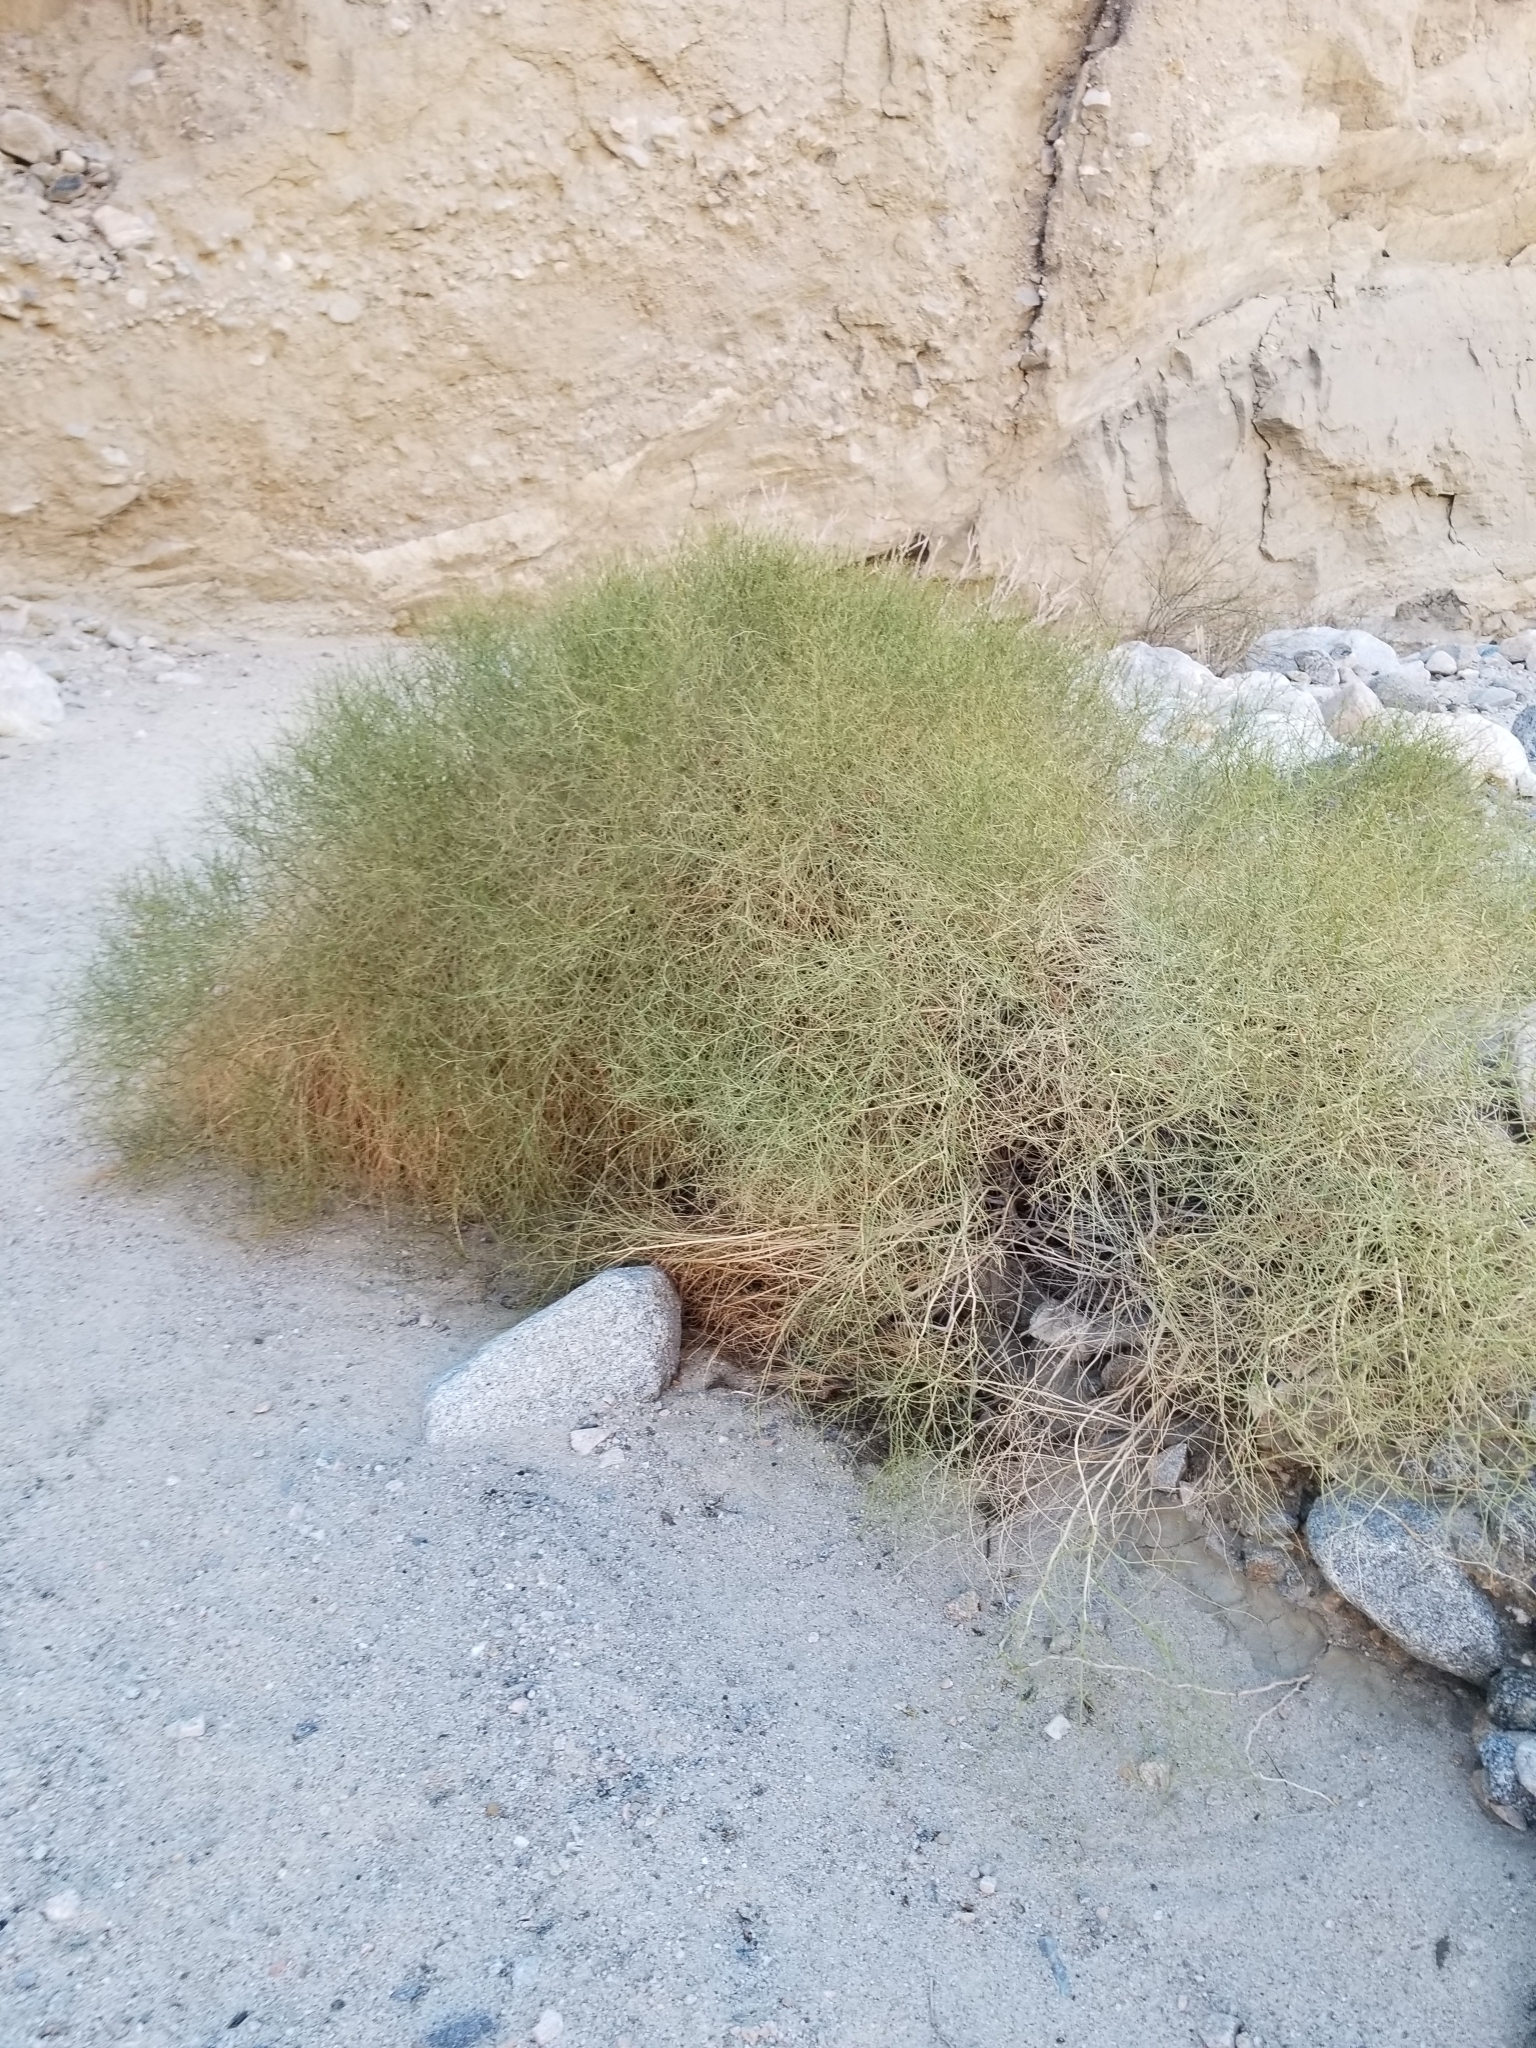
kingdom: Plantae
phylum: Tracheophyta
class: Magnoliopsida
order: Asterales
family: Asteraceae
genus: Ambrosia
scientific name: Ambrosia salsola
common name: Burrobrush
